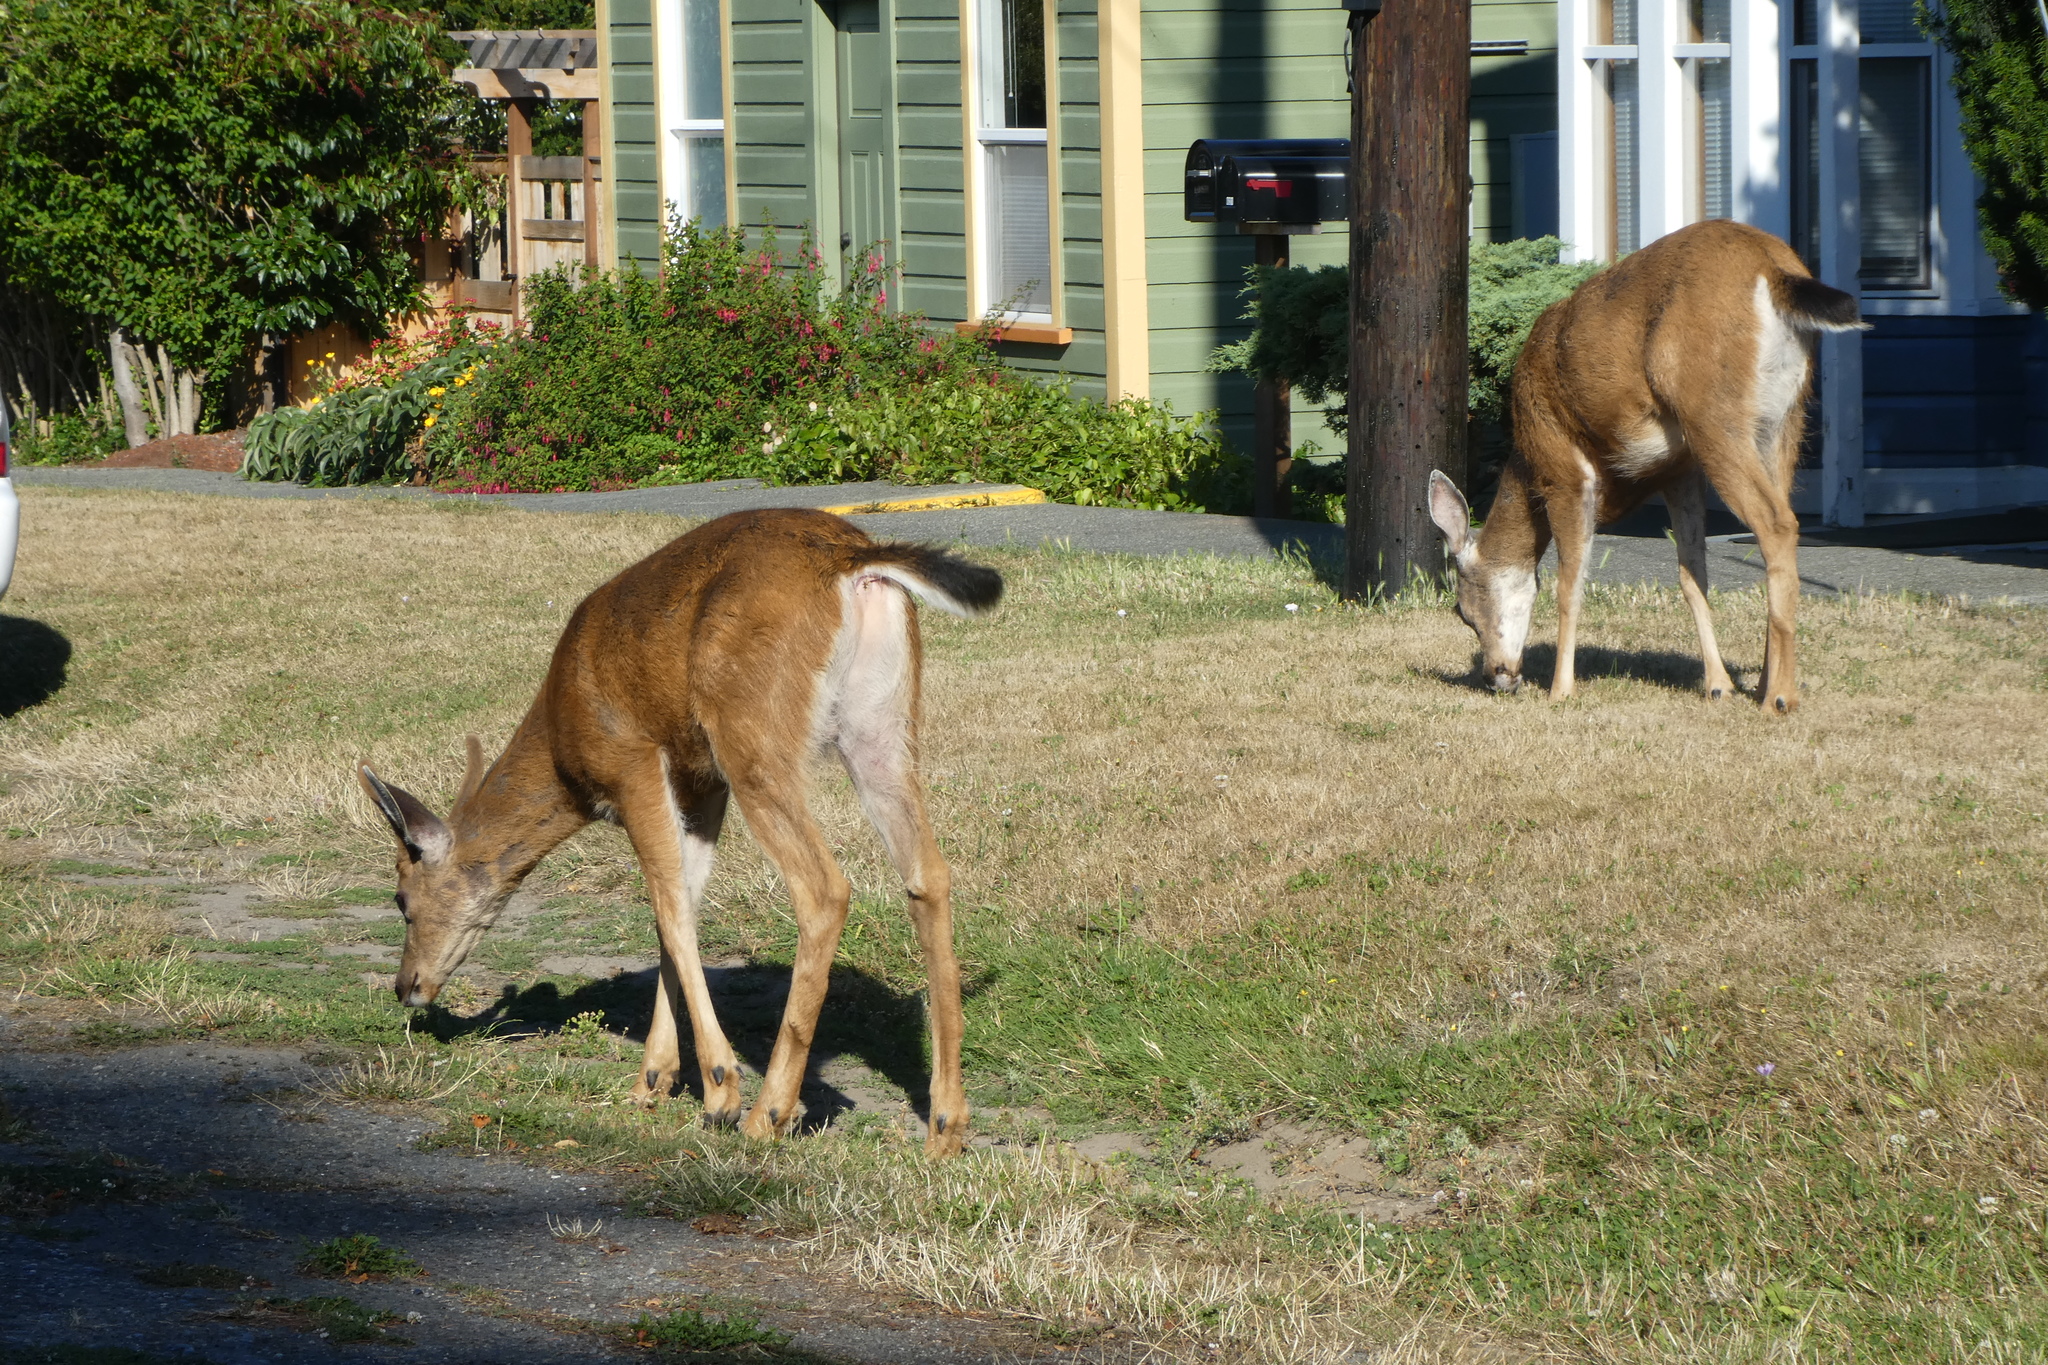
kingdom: Animalia
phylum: Chordata
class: Mammalia
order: Artiodactyla
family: Cervidae
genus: Odocoileus
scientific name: Odocoileus hemionus
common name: Mule deer
